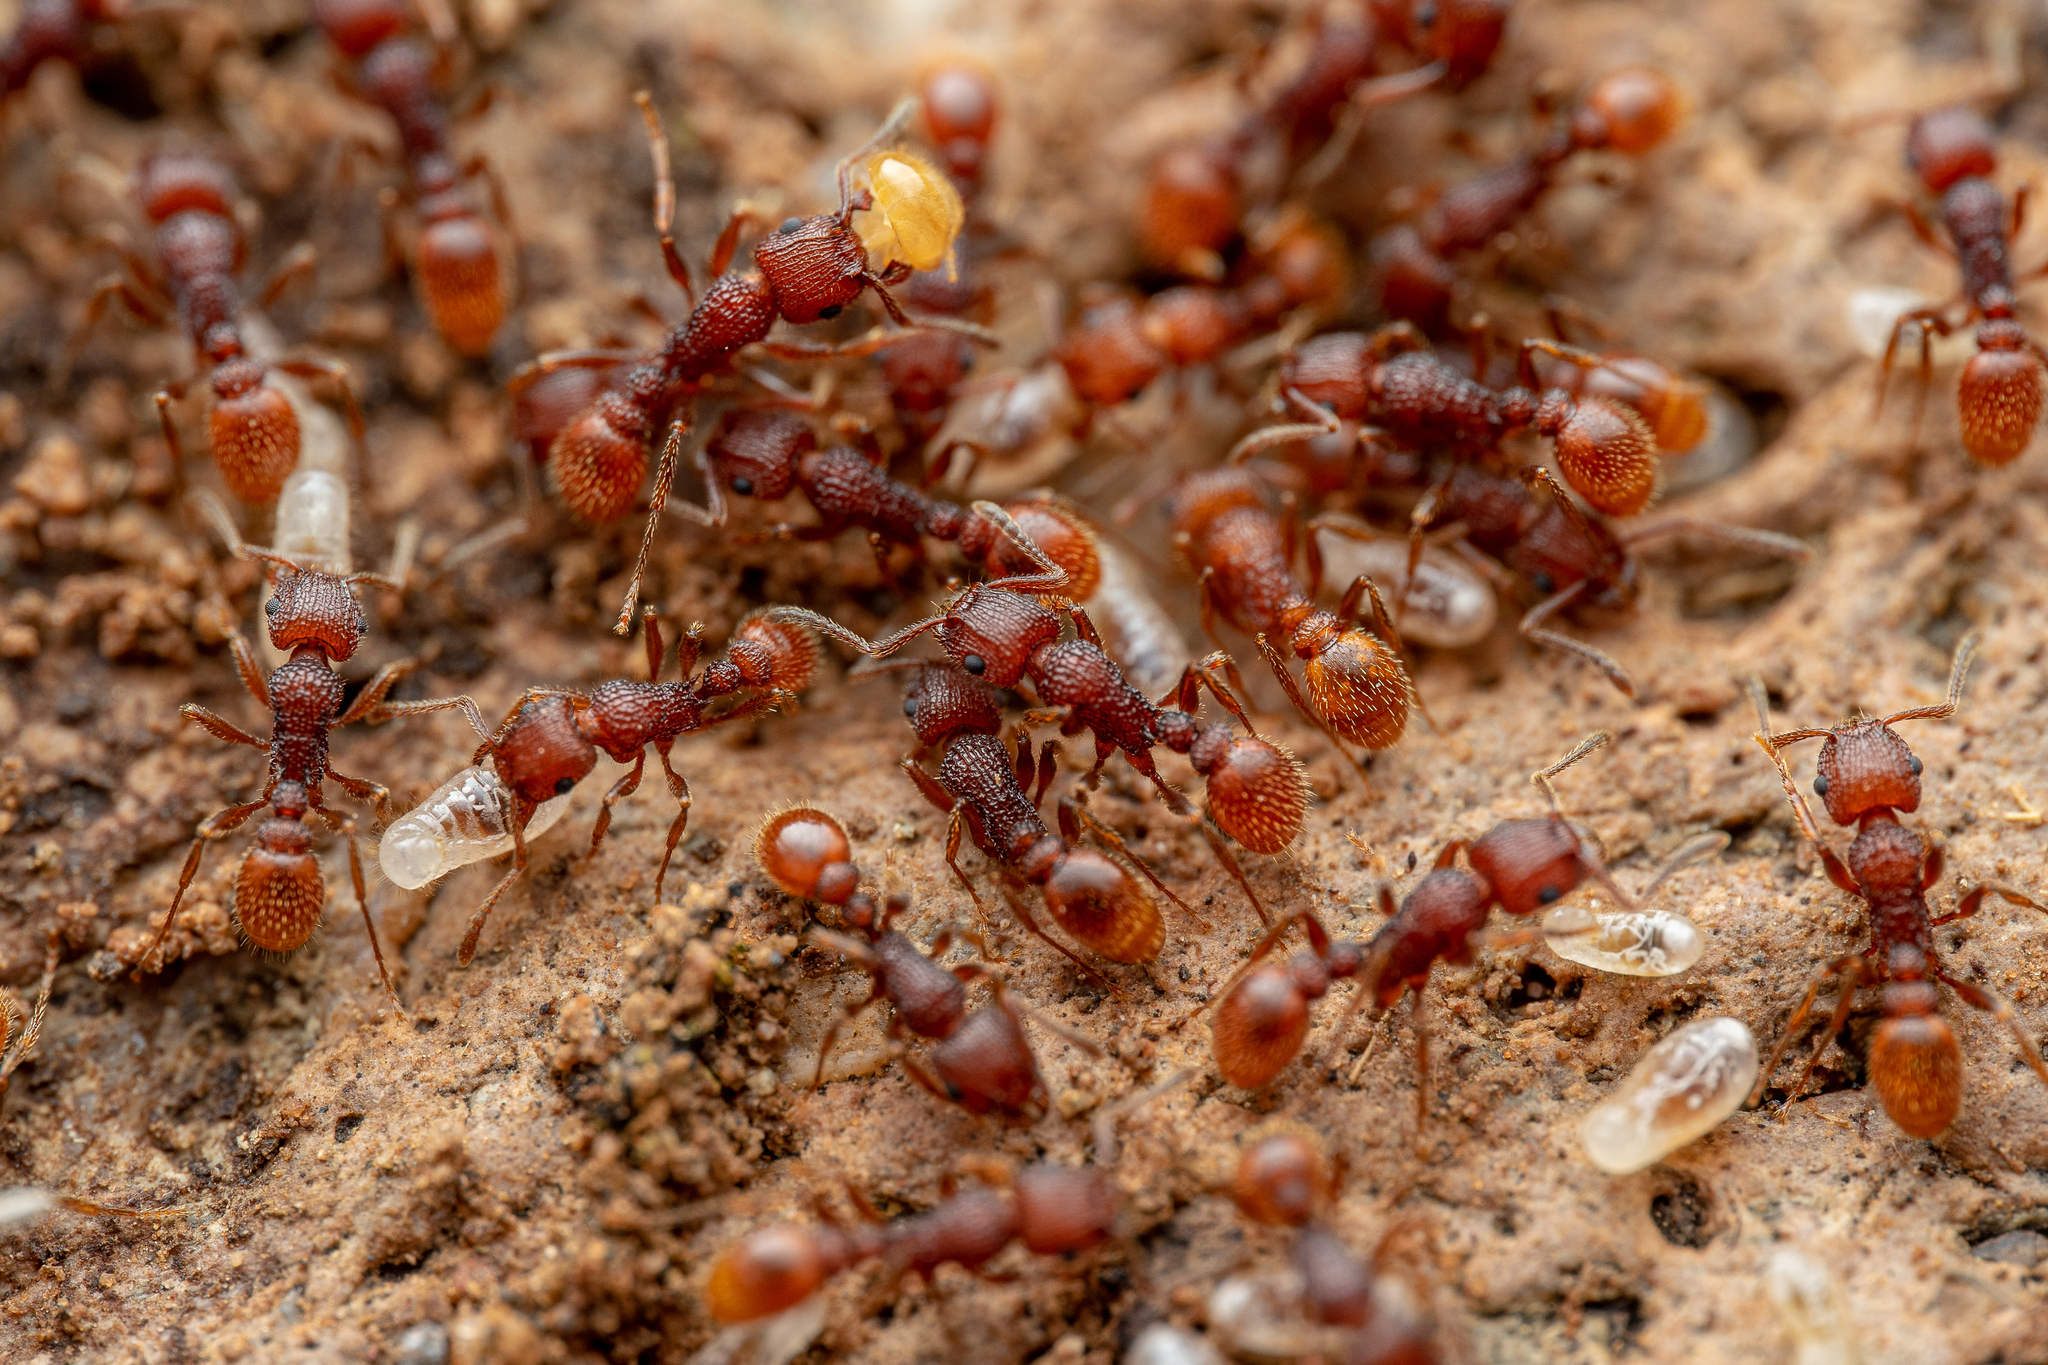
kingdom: Animalia
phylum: Arthropoda
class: Insecta
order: Hymenoptera
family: Formicidae
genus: Tetramorium
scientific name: Tetramorium hispidum
